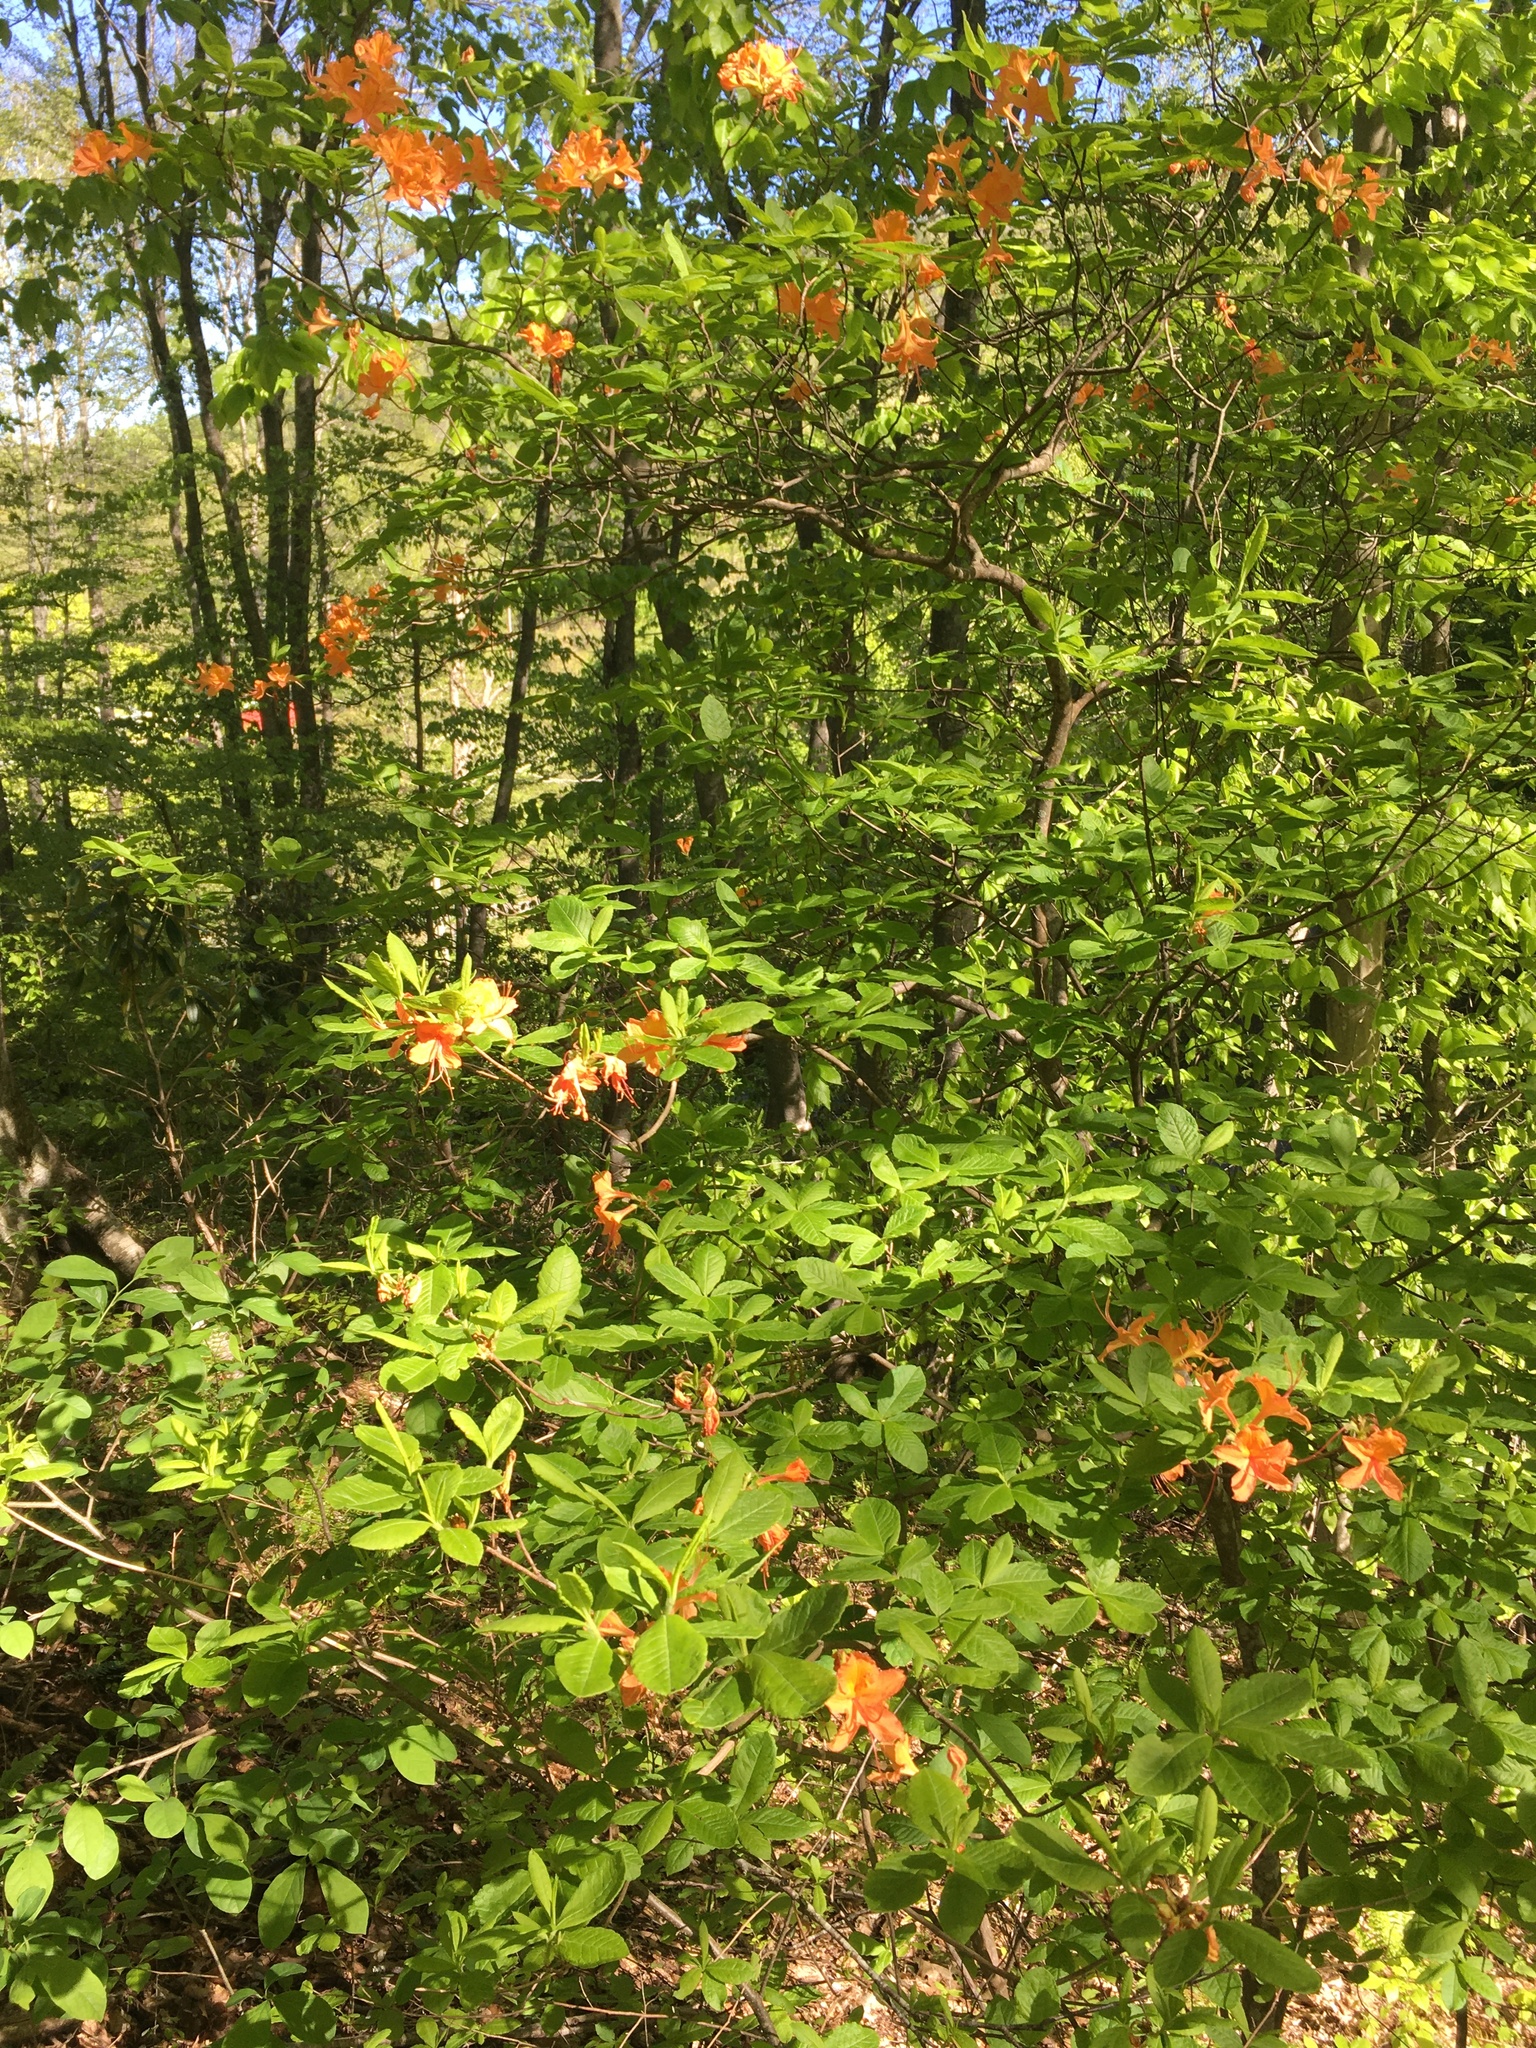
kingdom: Plantae
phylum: Tracheophyta
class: Magnoliopsida
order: Ericales
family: Ericaceae
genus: Rhododendron
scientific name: Rhododendron calendulaceum
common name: Flame azalea
